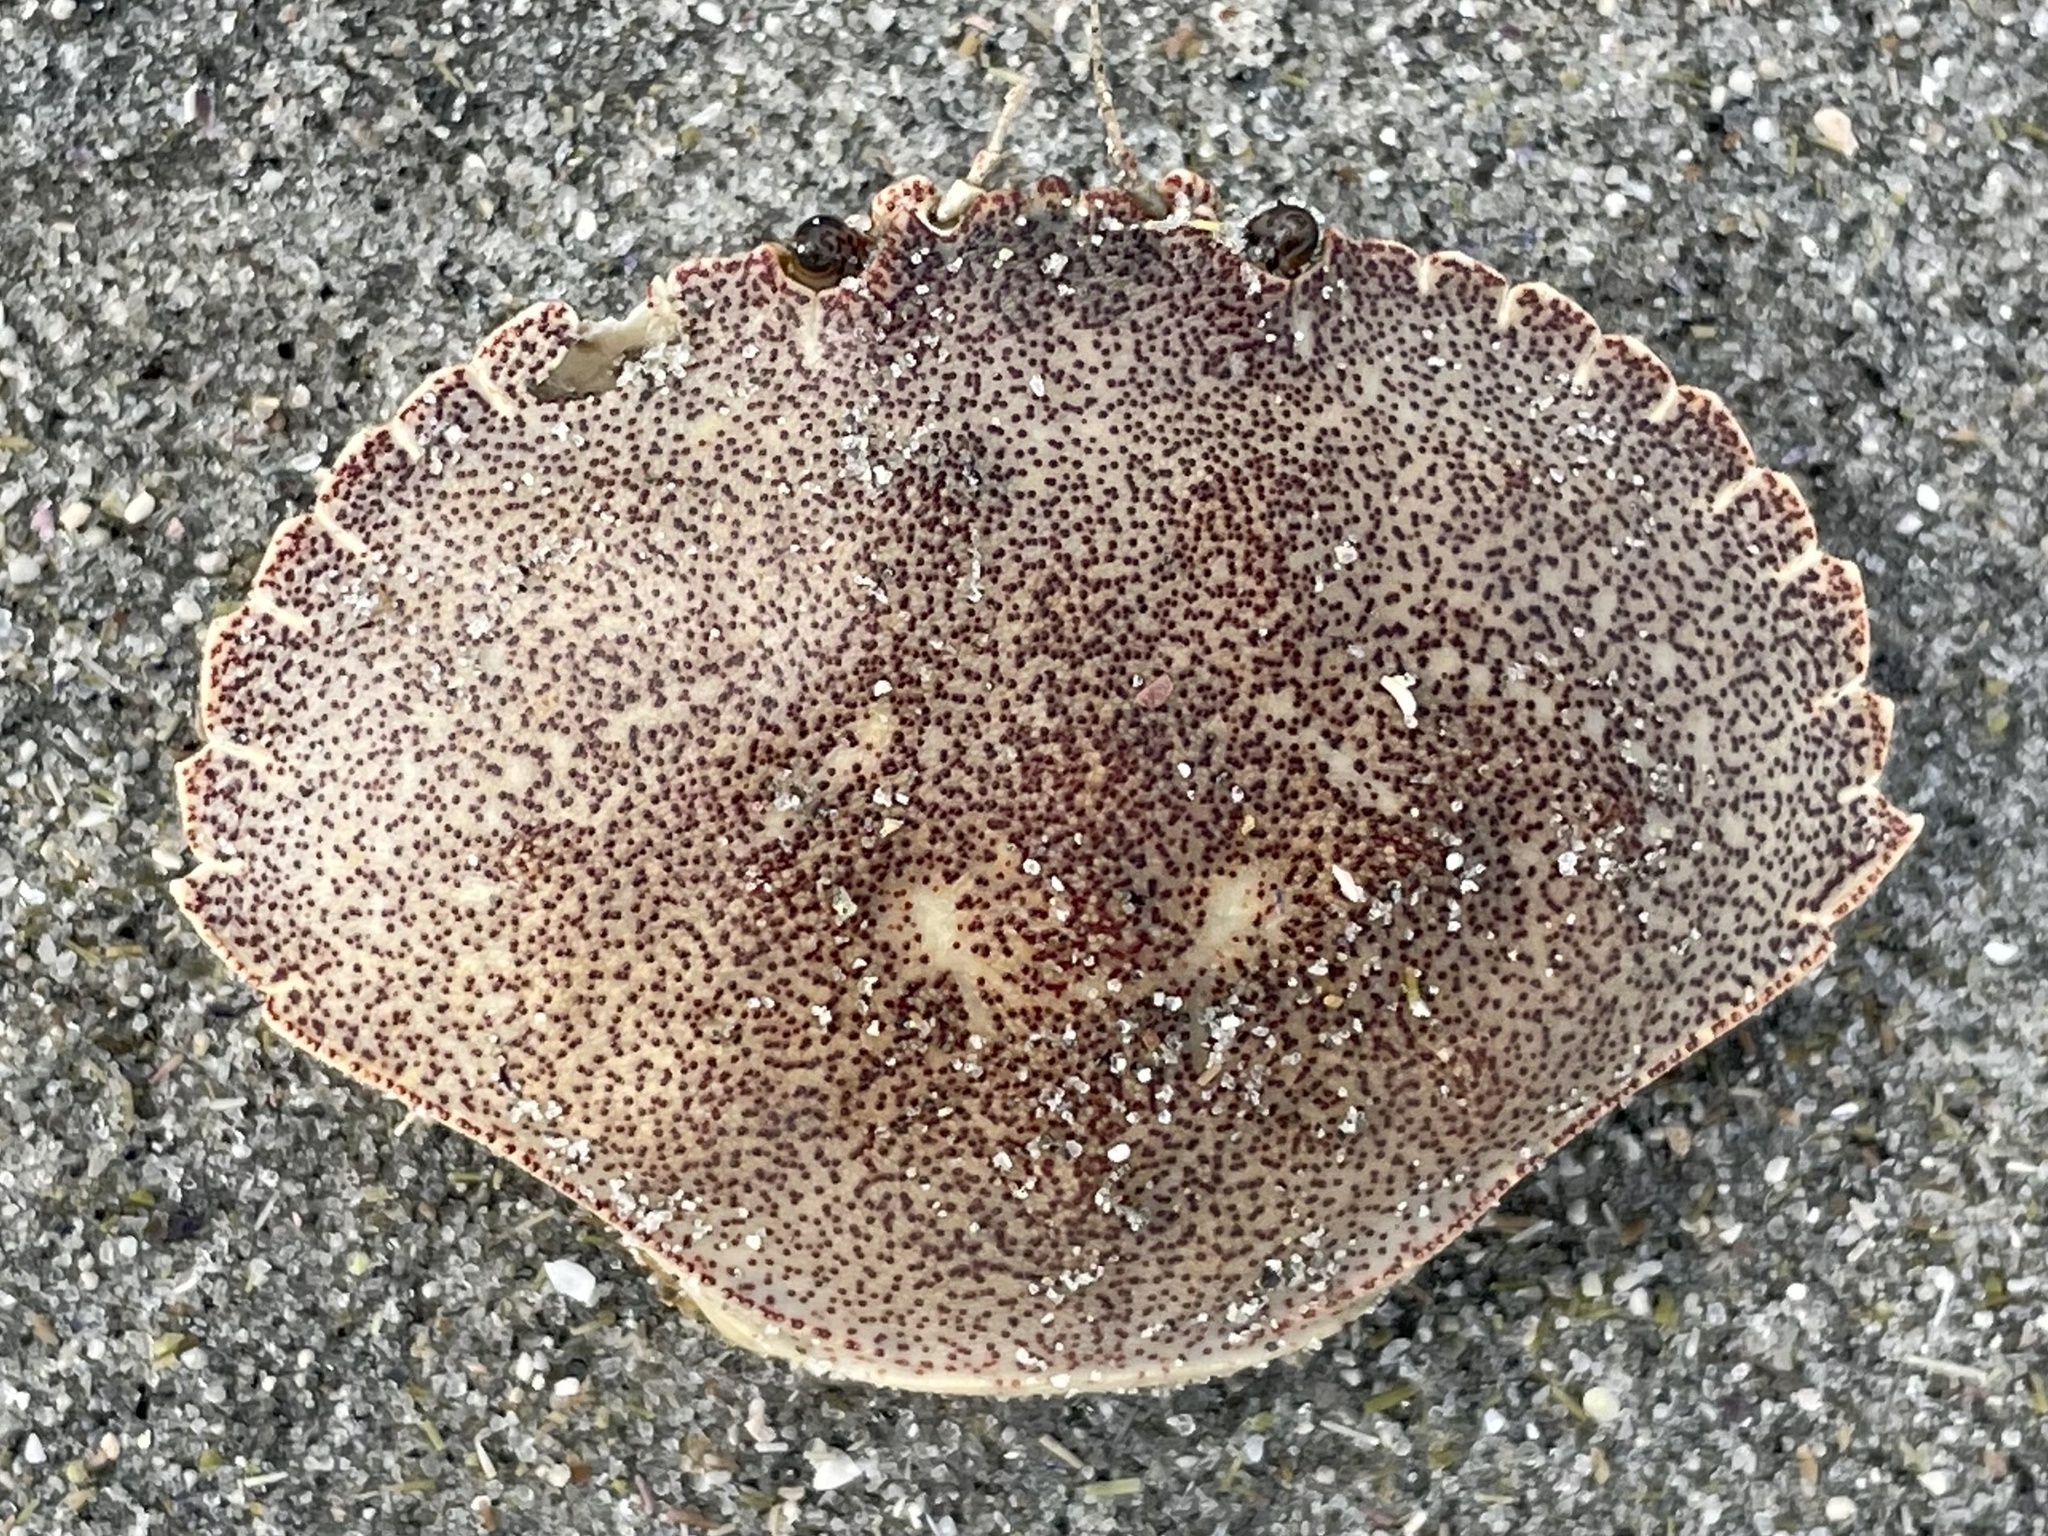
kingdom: Animalia
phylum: Arthropoda
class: Malacostraca
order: Decapoda
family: Cancridae
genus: Cancer
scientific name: Cancer irroratus
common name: Atlantic rock crab
